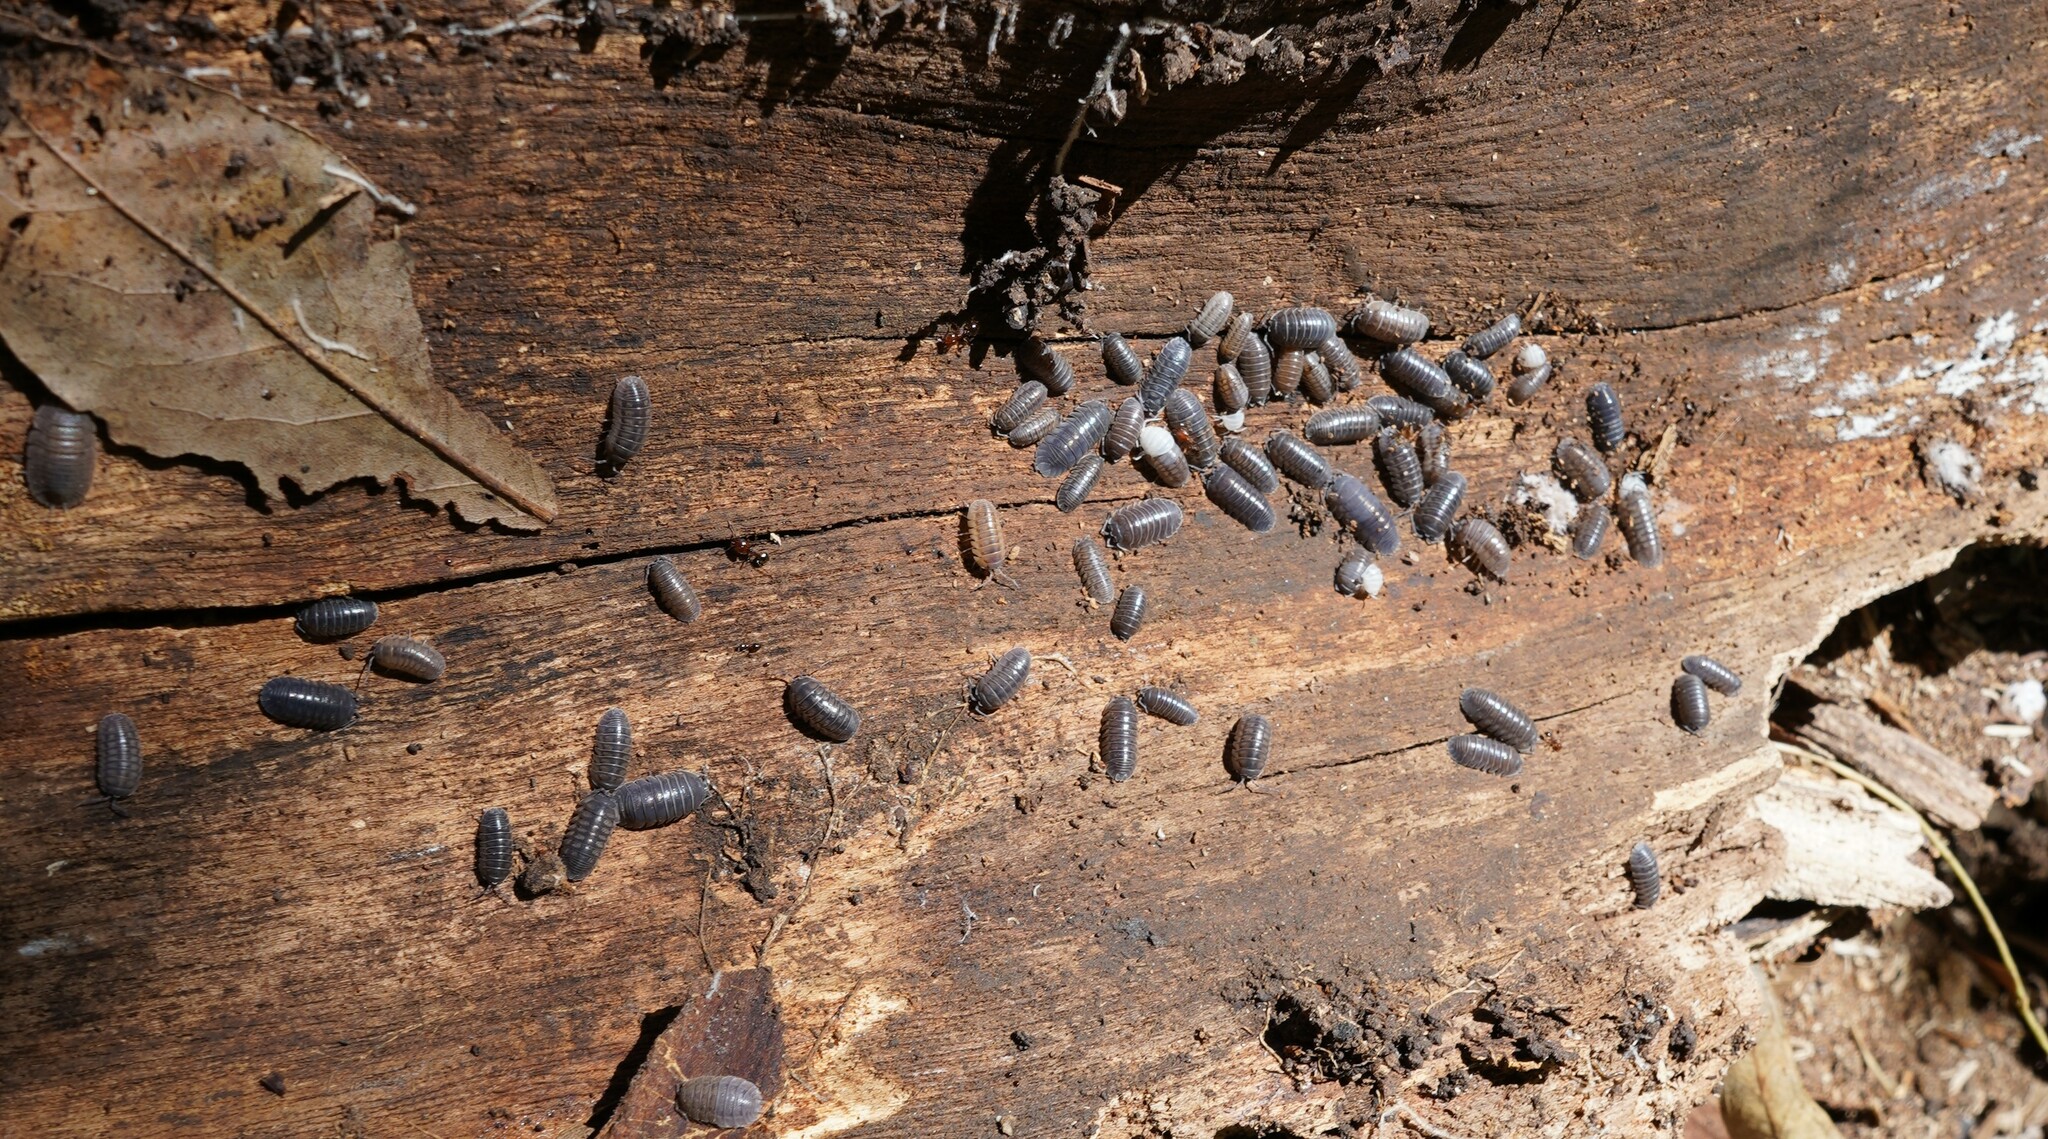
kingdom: Animalia
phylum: Arthropoda
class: Malacostraca
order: Isopoda
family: Armadillidiidae
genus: Armadillidium
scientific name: Armadillidium nasatum
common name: Isopod
